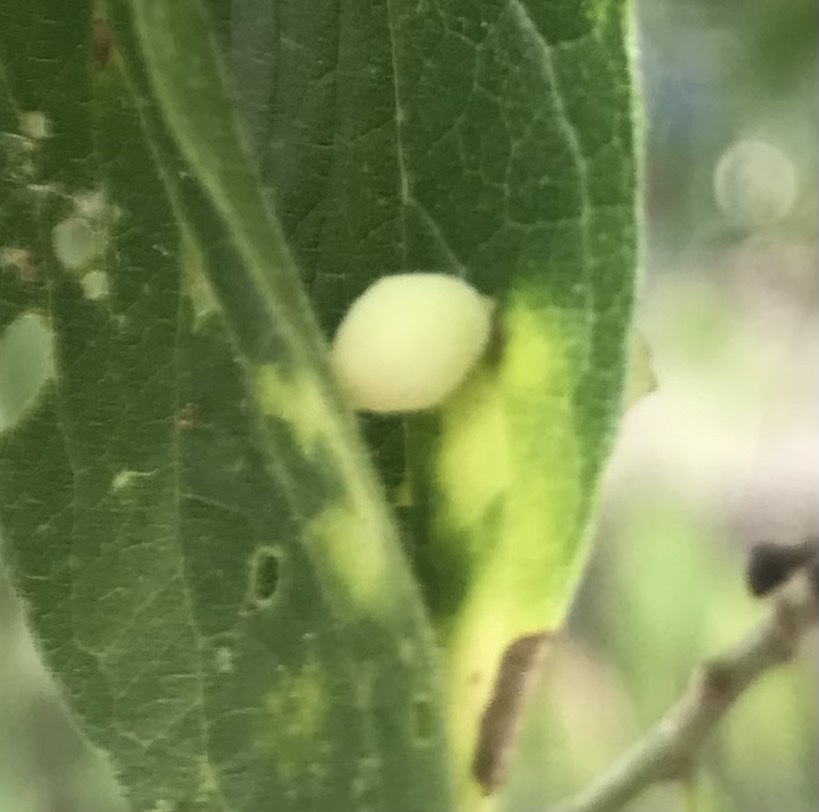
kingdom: Animalia
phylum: Arthropoda
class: Insecta
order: Diptera
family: Cecidomyiidae
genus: Celticecis
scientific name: Celticecis globosa
